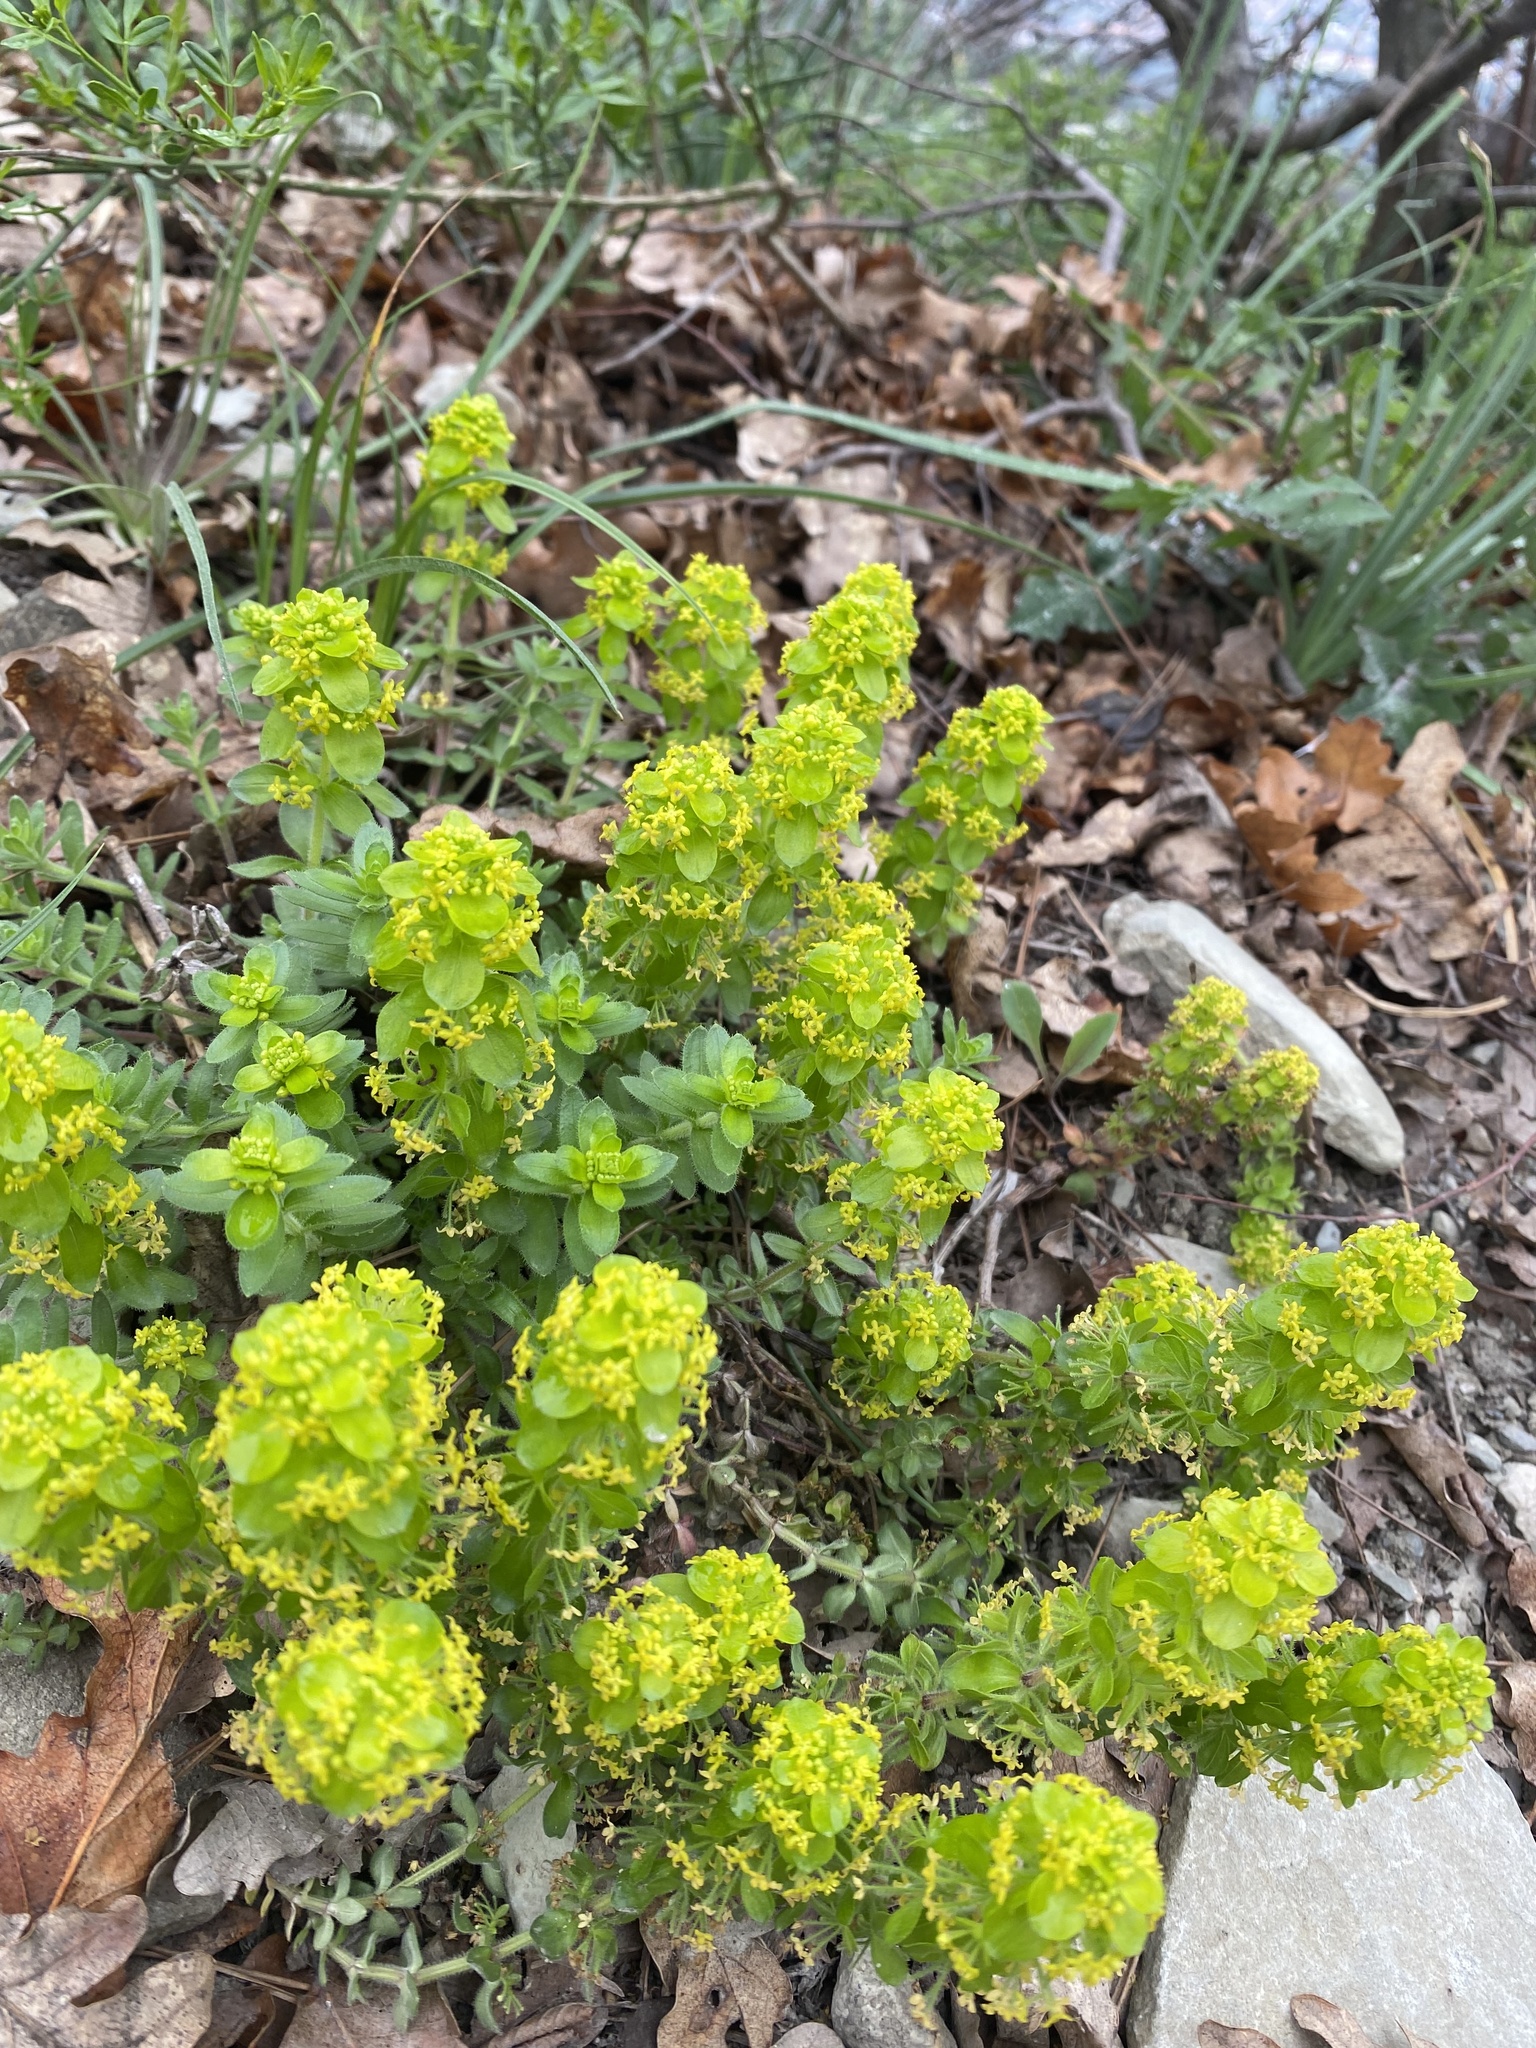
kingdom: Plantae
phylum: Tracheophyta
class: Magnoliopsida
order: Gentianales
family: Rubiaceae
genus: Cruciata
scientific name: Cruciata taurica
